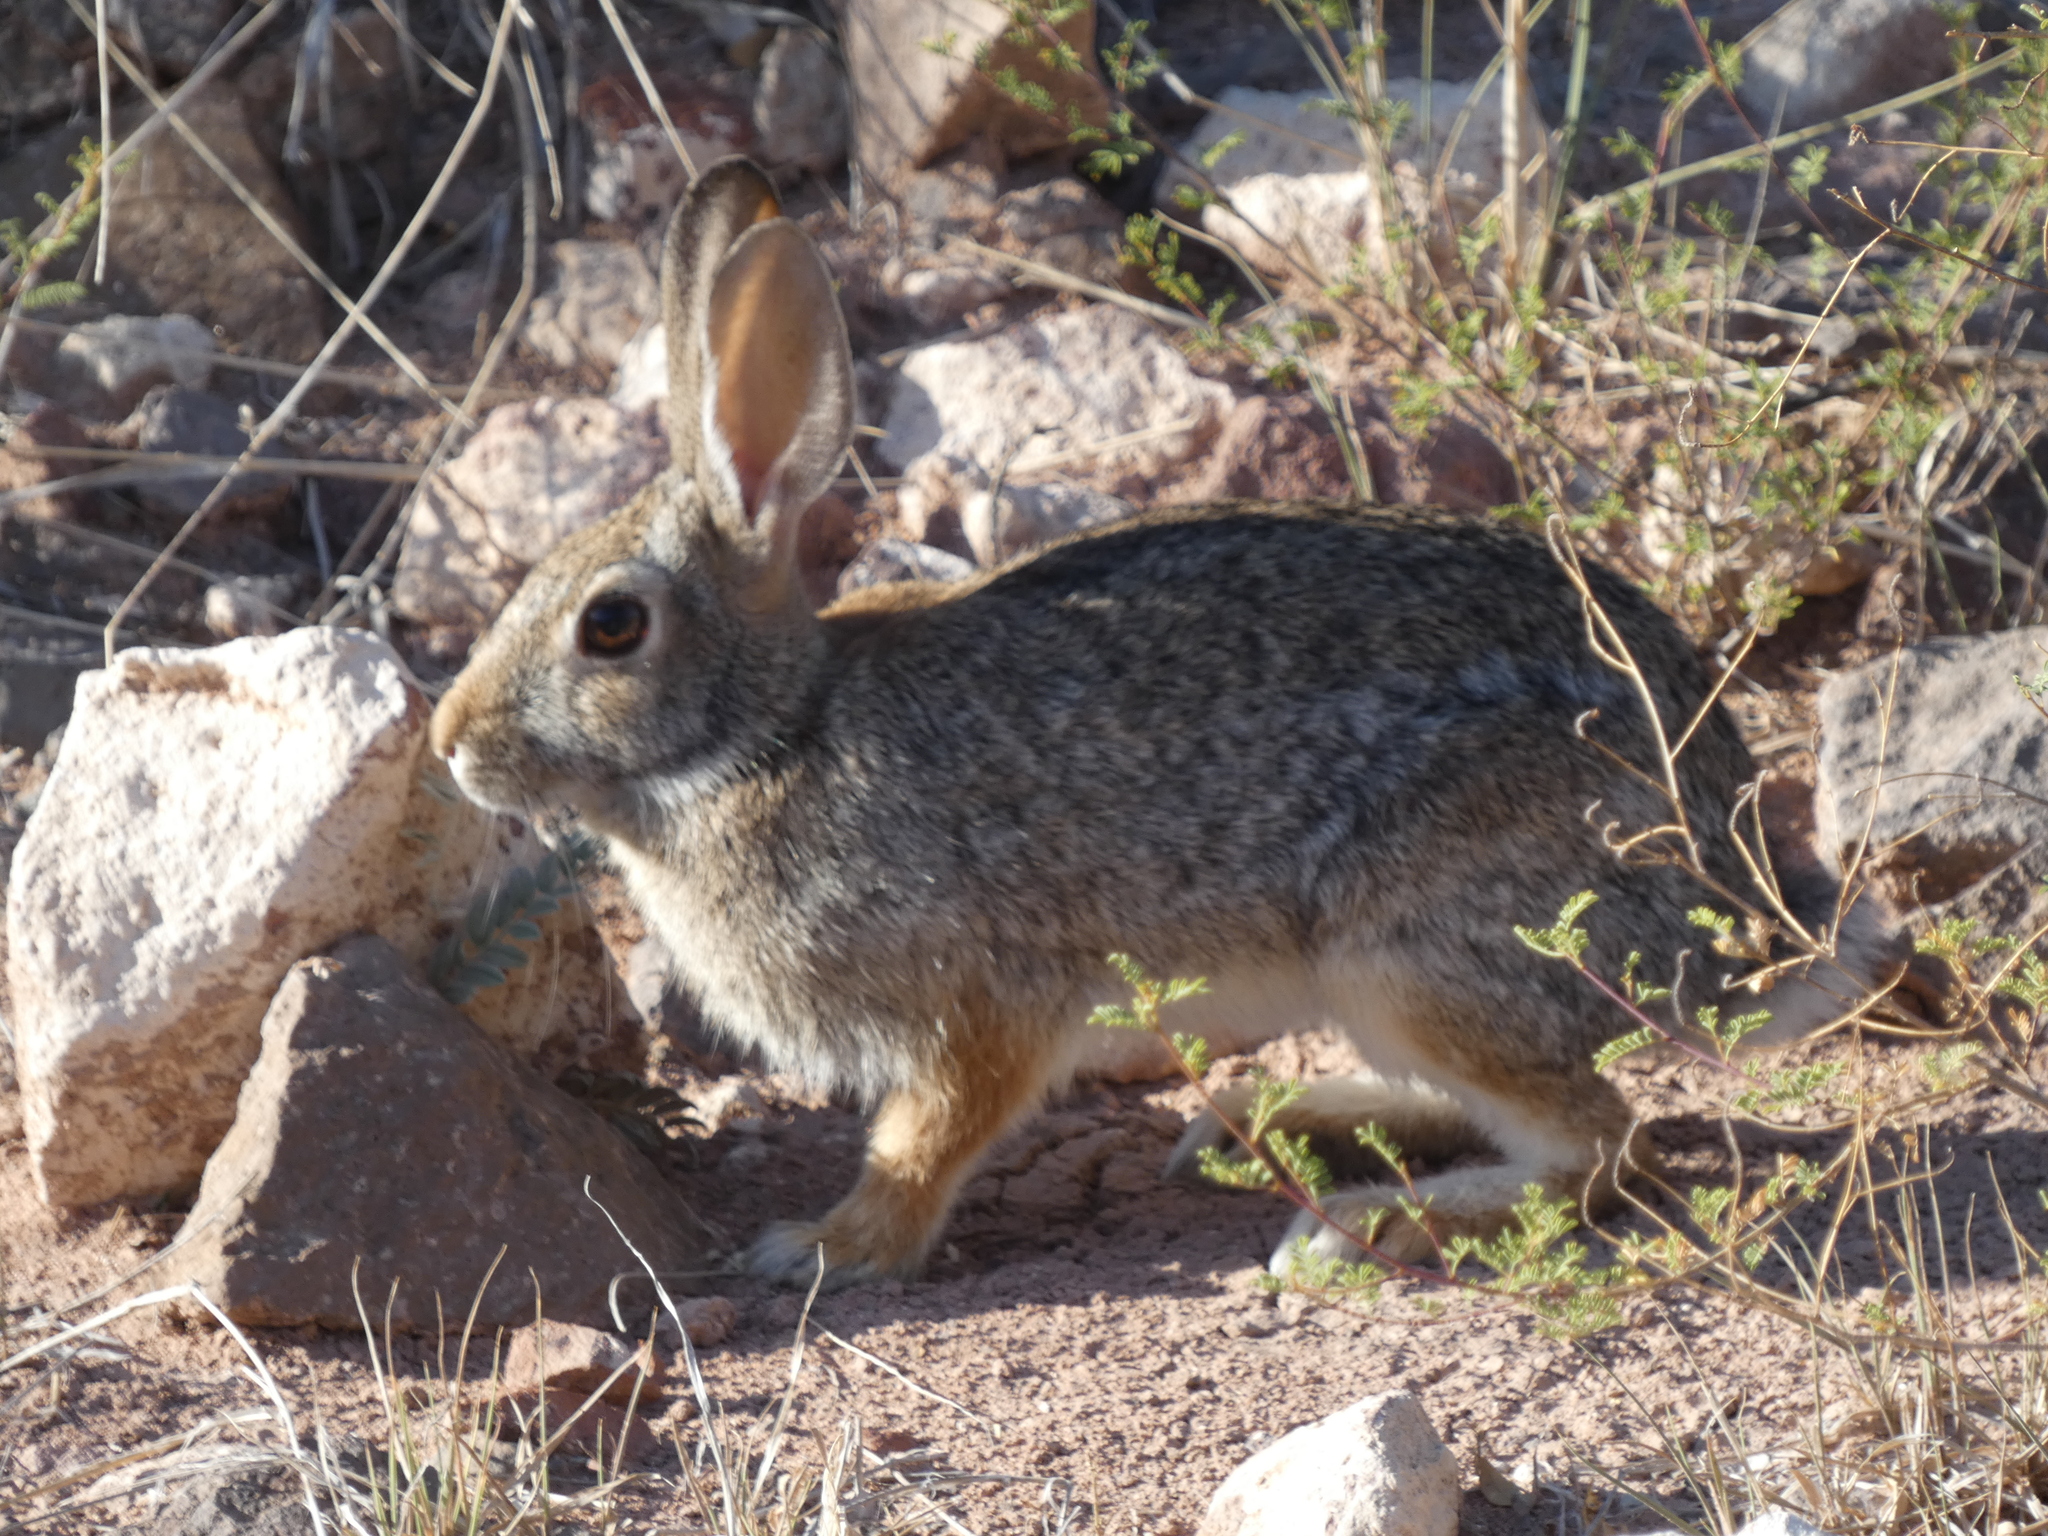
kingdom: Animalia
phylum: Chordata
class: Mammalia
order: Lagomorpha
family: Leporidae
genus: Sylvilagus
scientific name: Sylvilagus audubonii
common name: Desert cottontail
